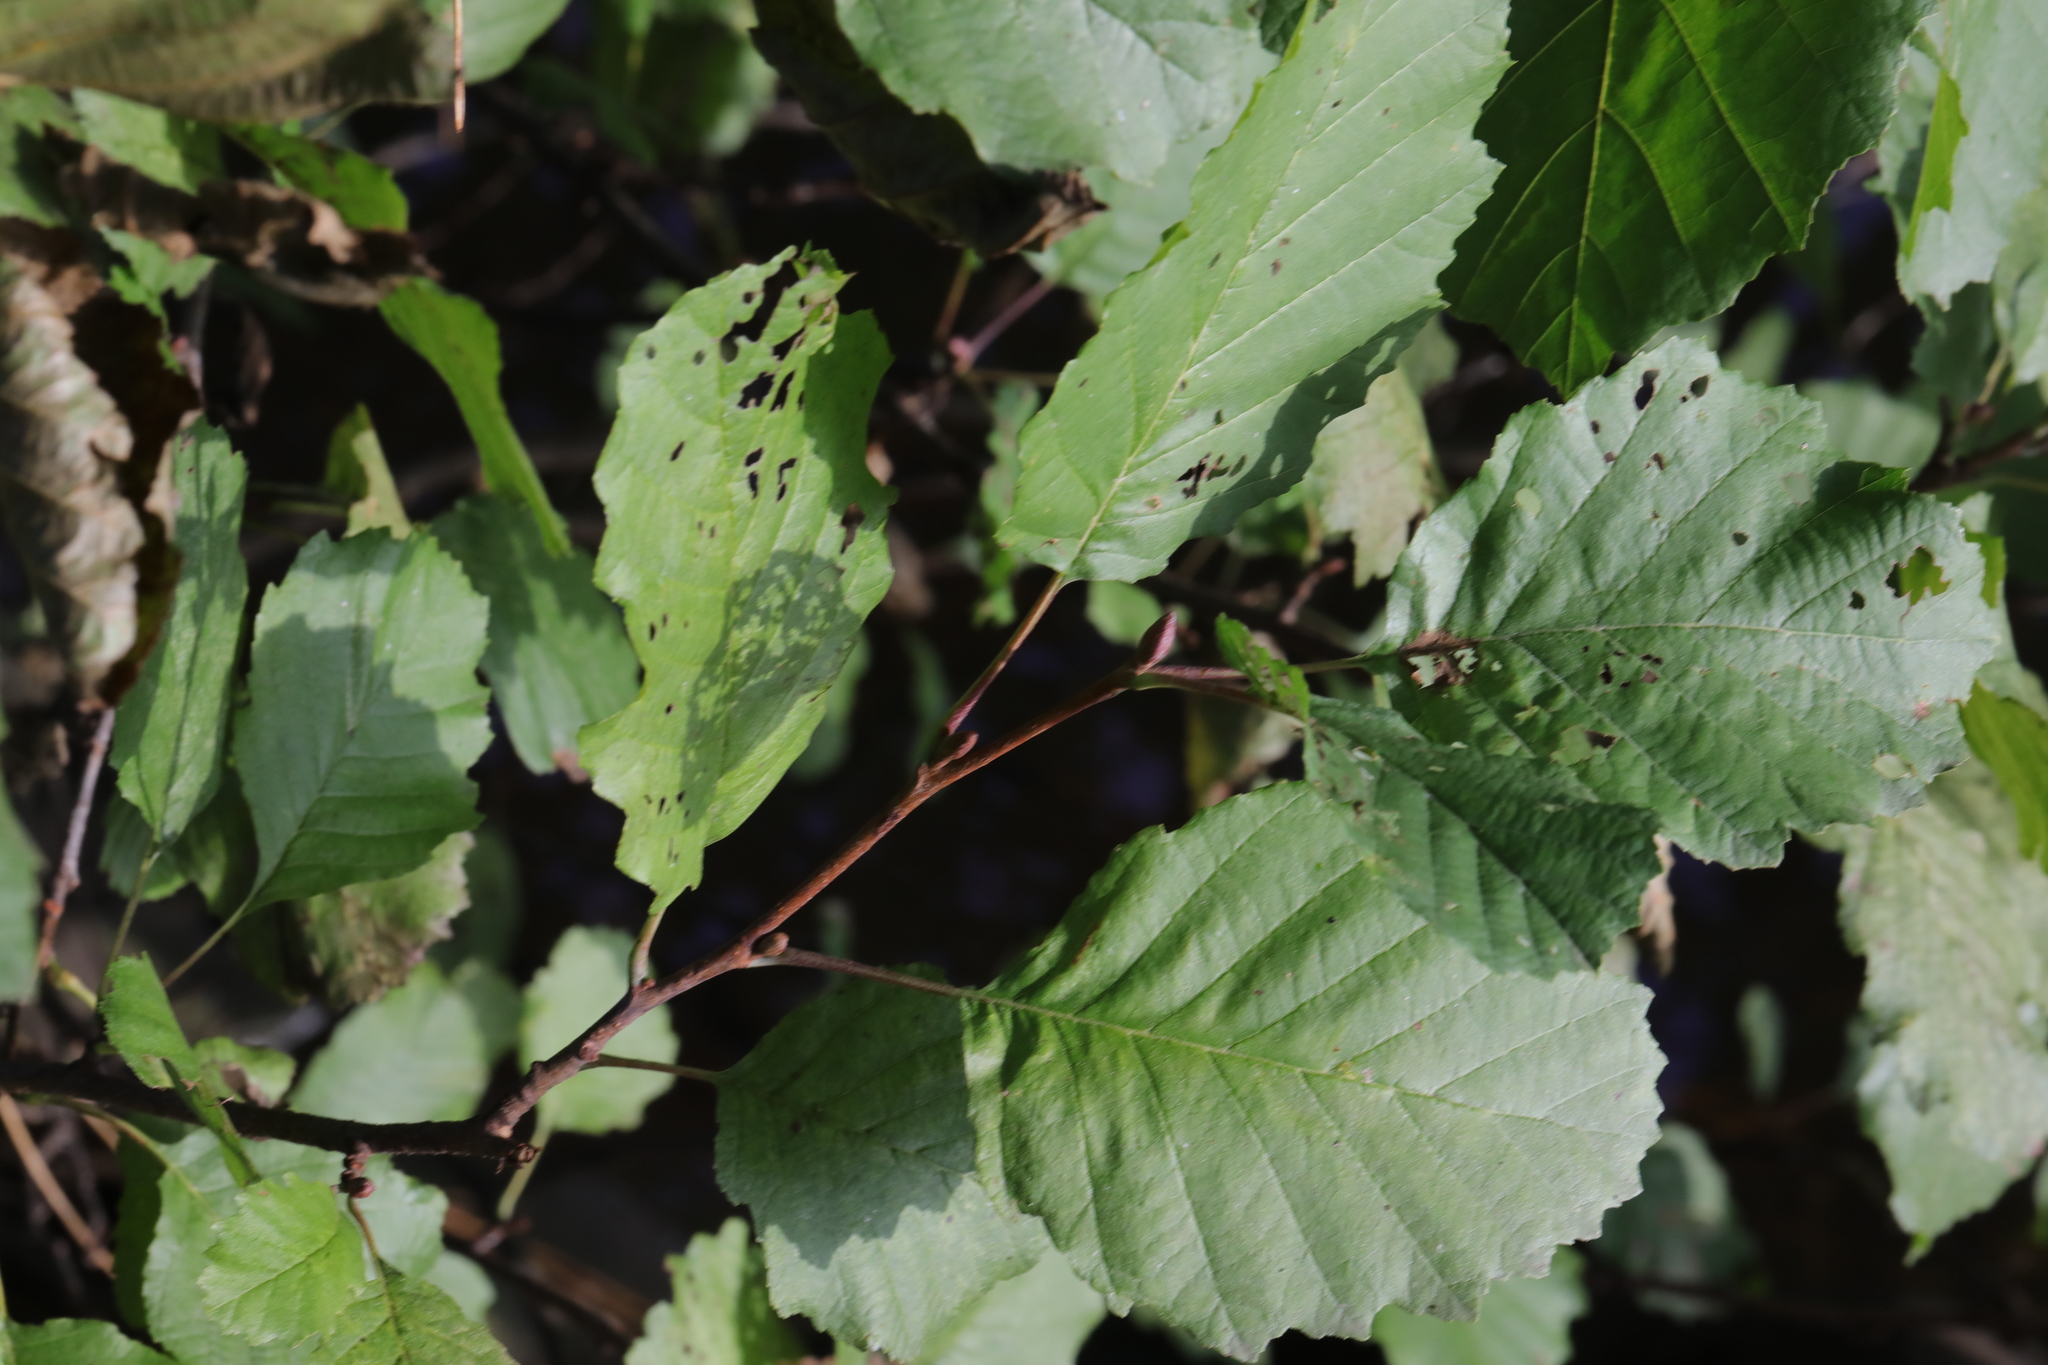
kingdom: Plantae
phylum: Tracheophyta
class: Magnoliopsida
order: Fagales
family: Betulaceae
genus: Alnus
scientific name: Alnus glutinosa
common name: Black alder
